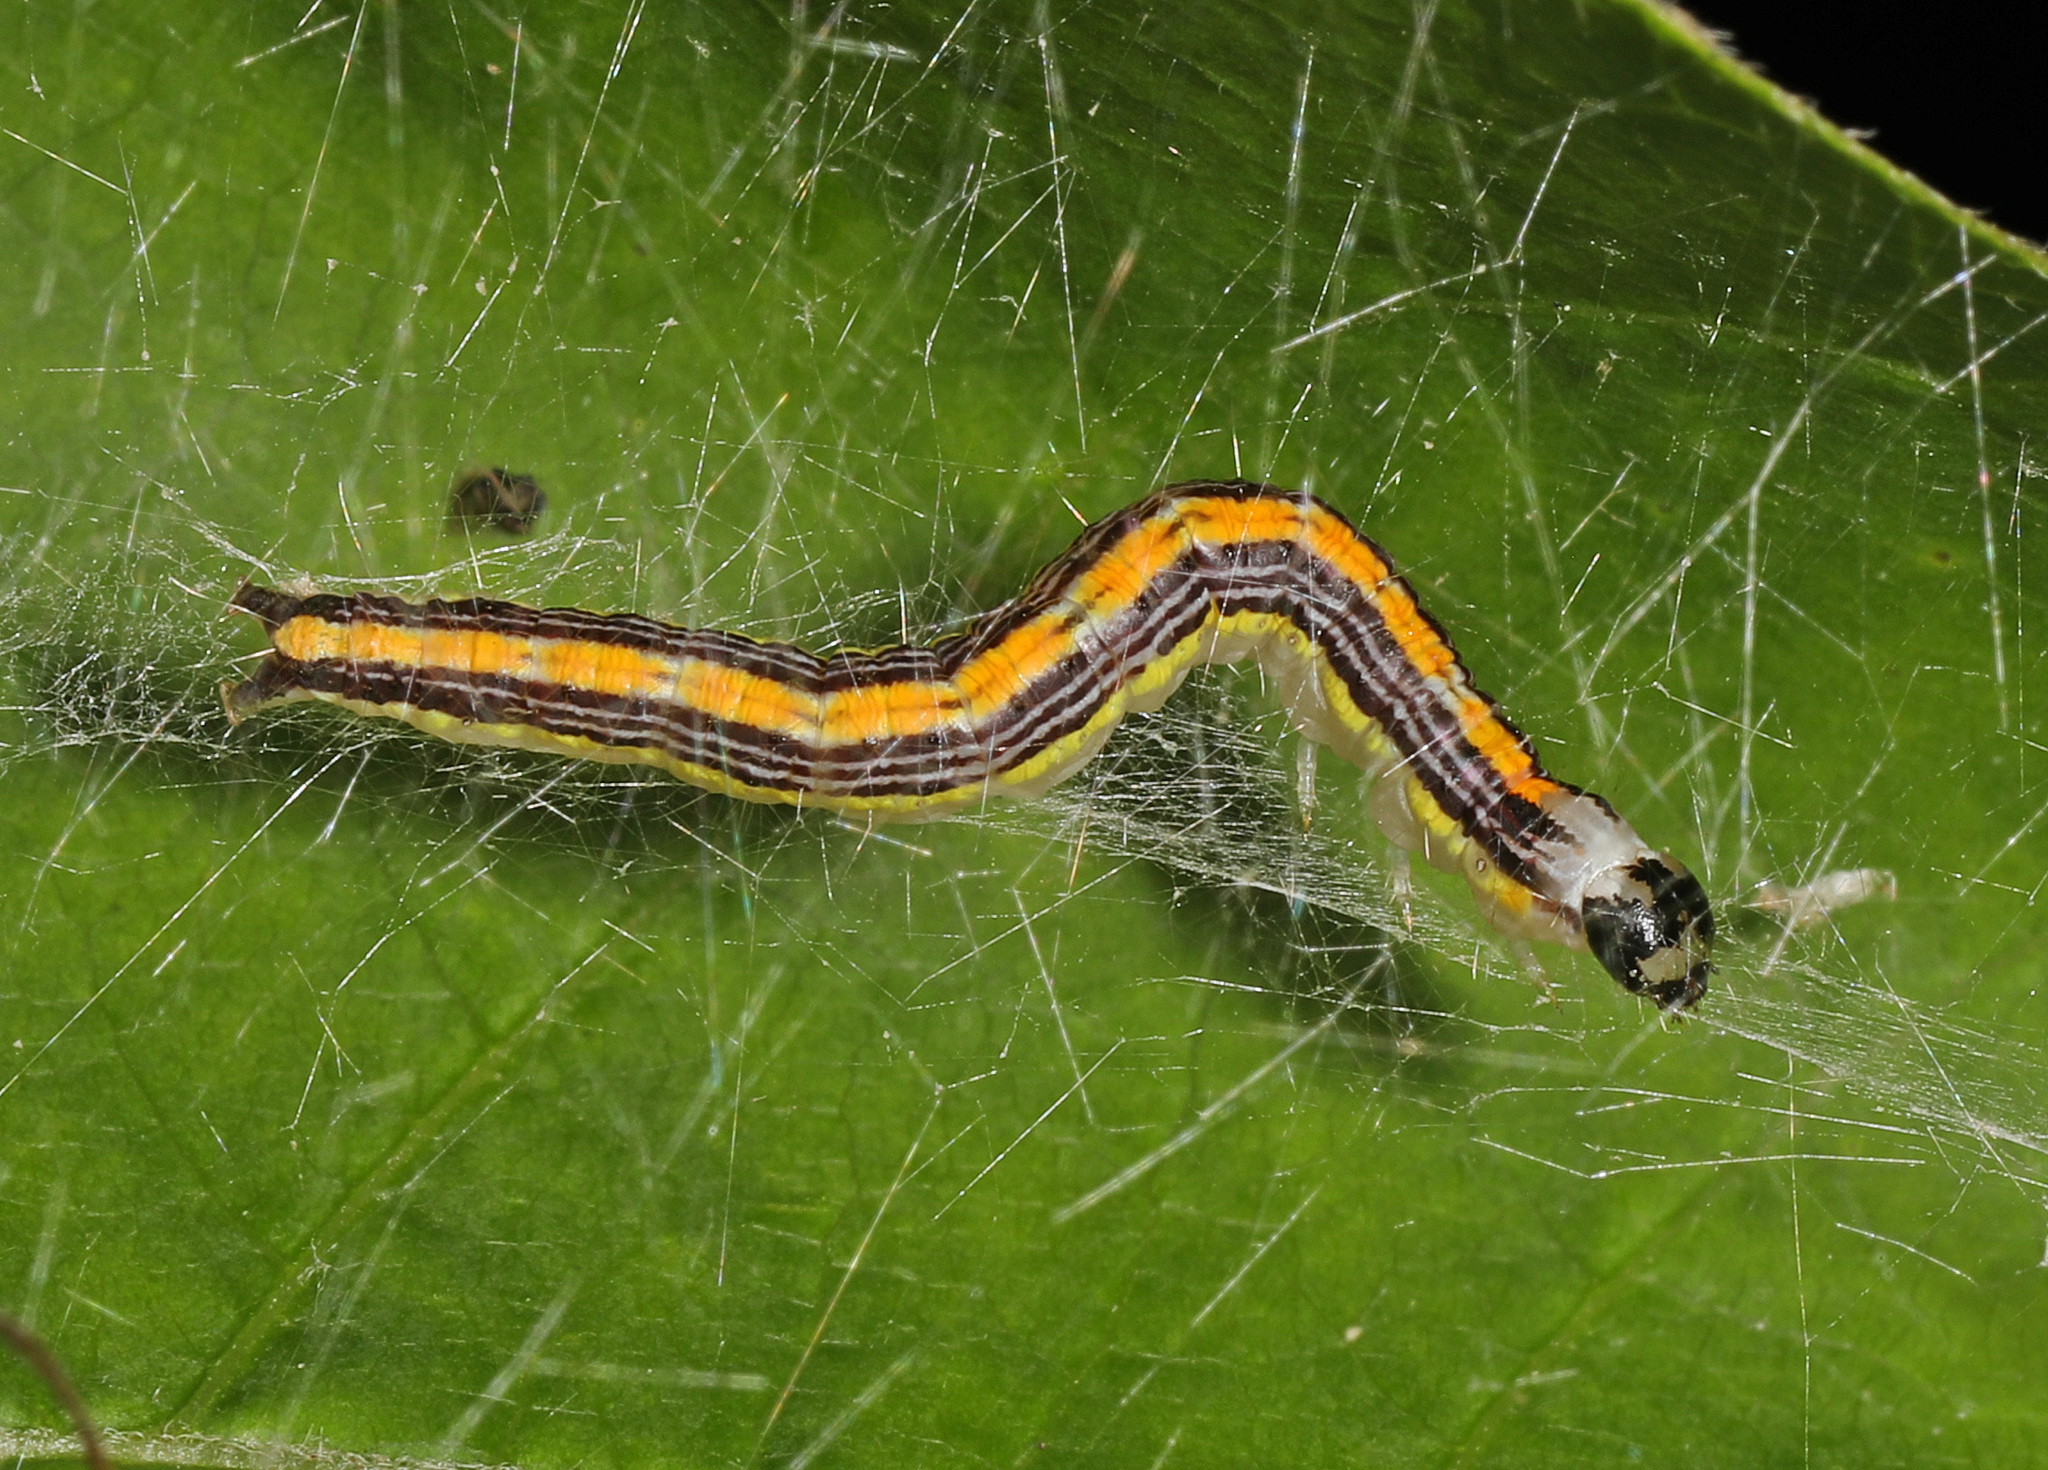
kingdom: Animalia
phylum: Arthropoda
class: Insecta
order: Lepidoptera
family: Pyralidae
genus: Epipaschia
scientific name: Epipaschia superatalis
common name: Dimorphic macalla moth
